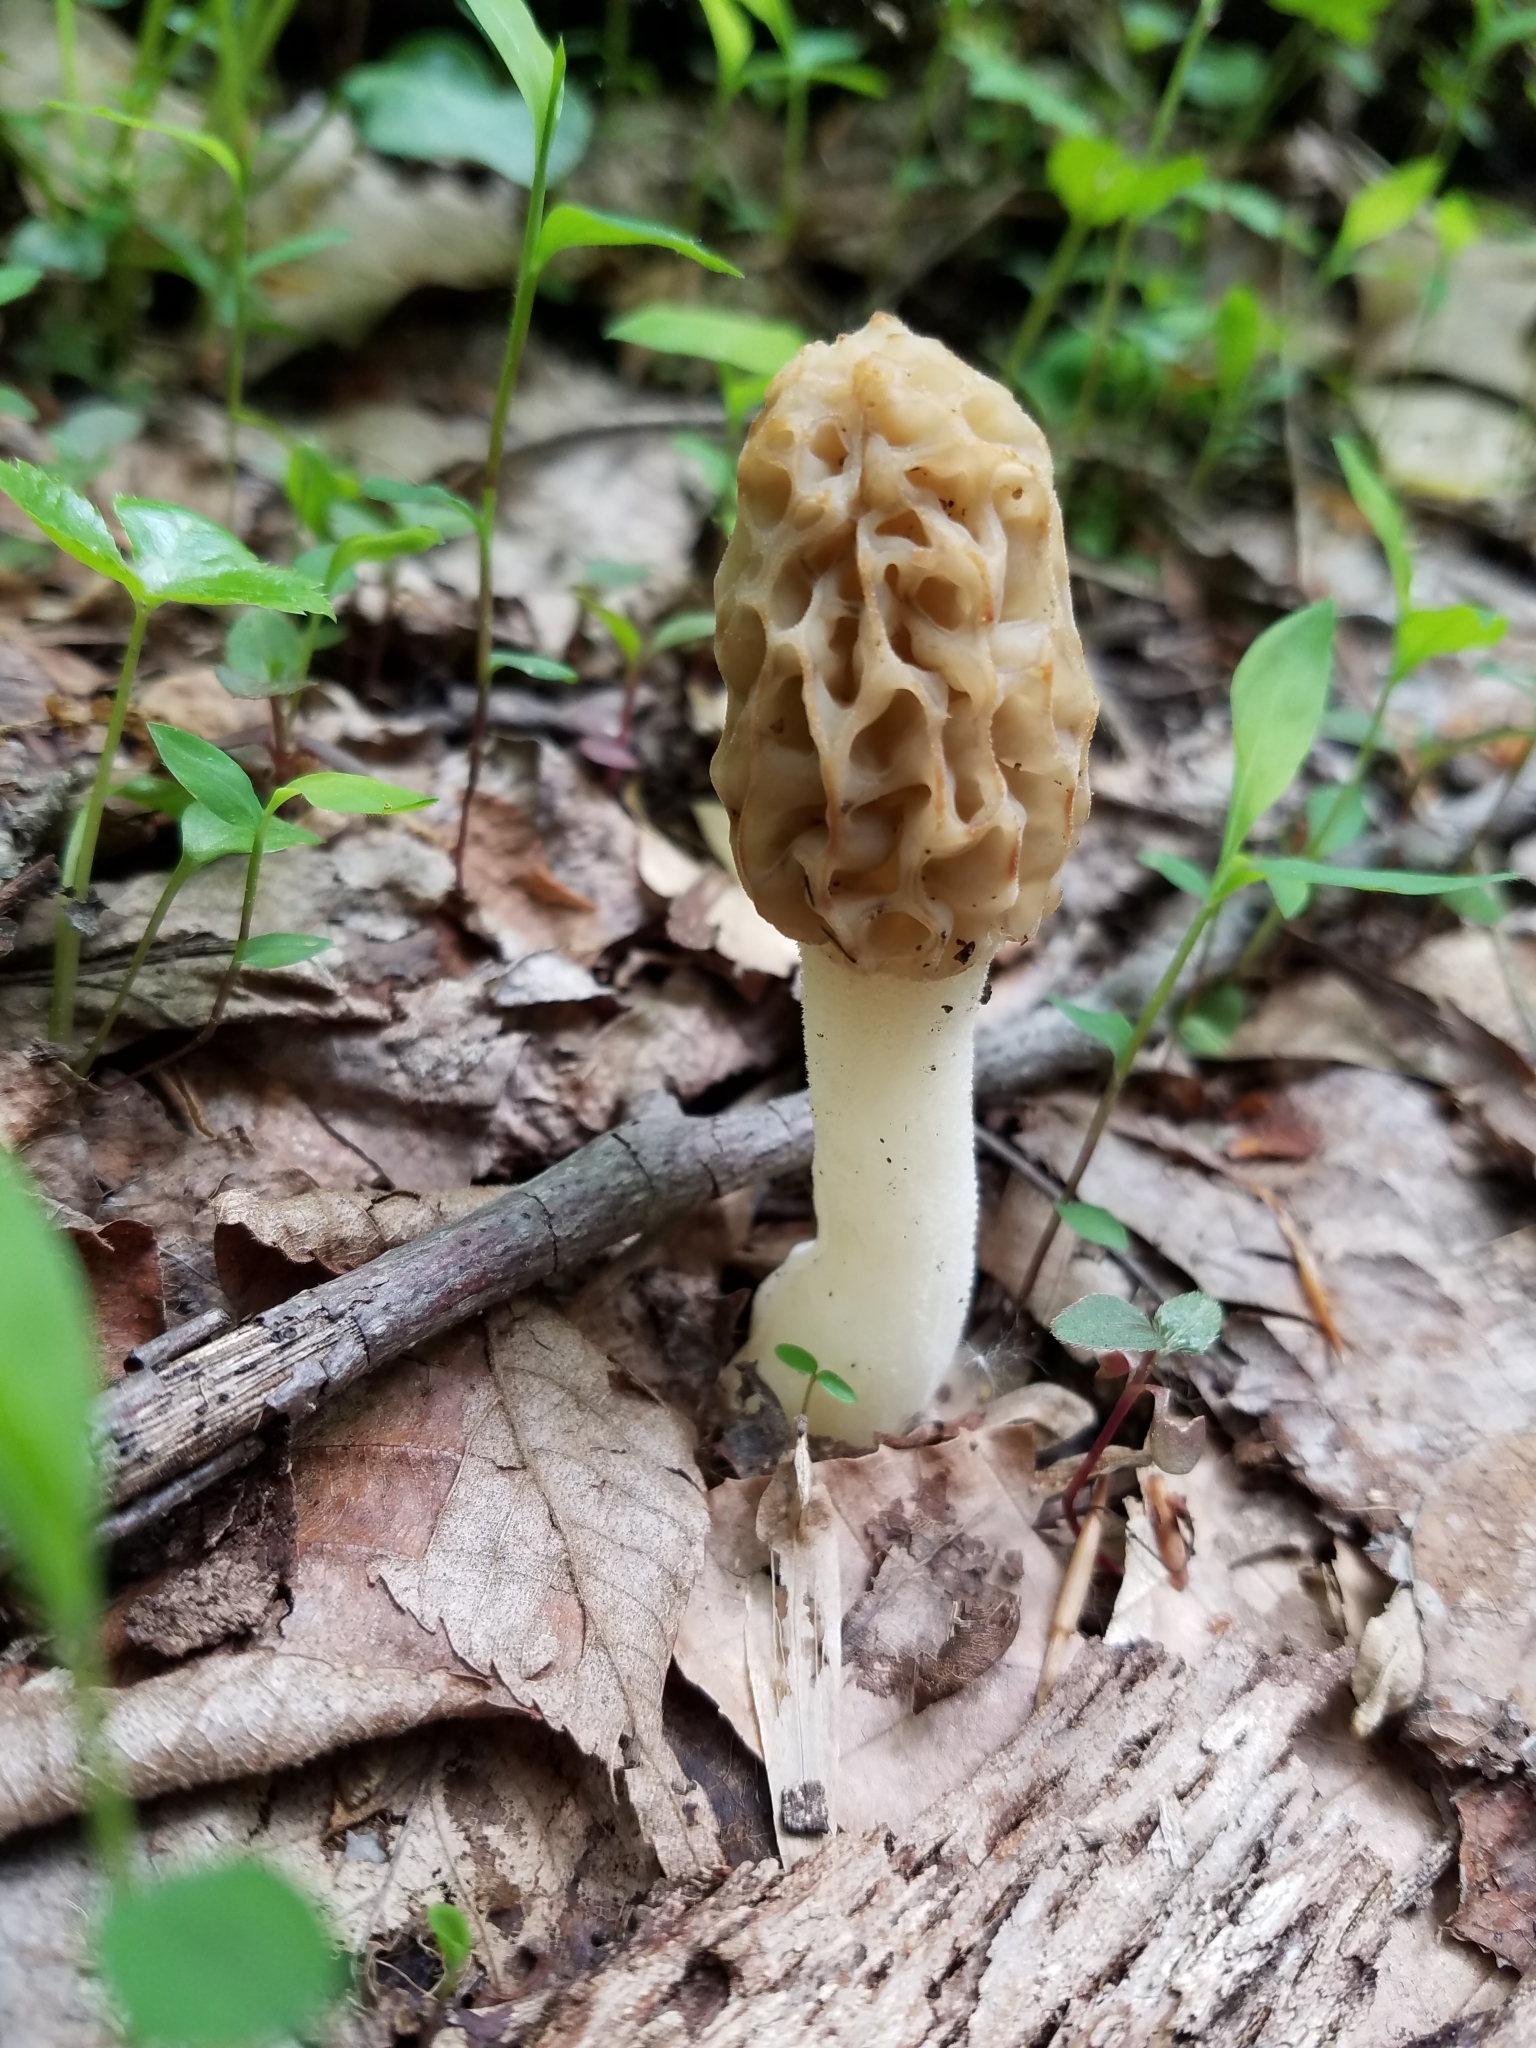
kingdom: Fungi
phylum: Ascomycota
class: Pezizomycetes
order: Pezizales
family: Morchellaceae
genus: Morchella
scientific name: Morchella diminutiva
